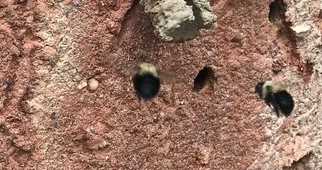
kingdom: Animalia
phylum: Arthropoda
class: Insecta
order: Hymenoptera
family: Apidae
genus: Anthophora
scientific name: Anthophora abrupta
